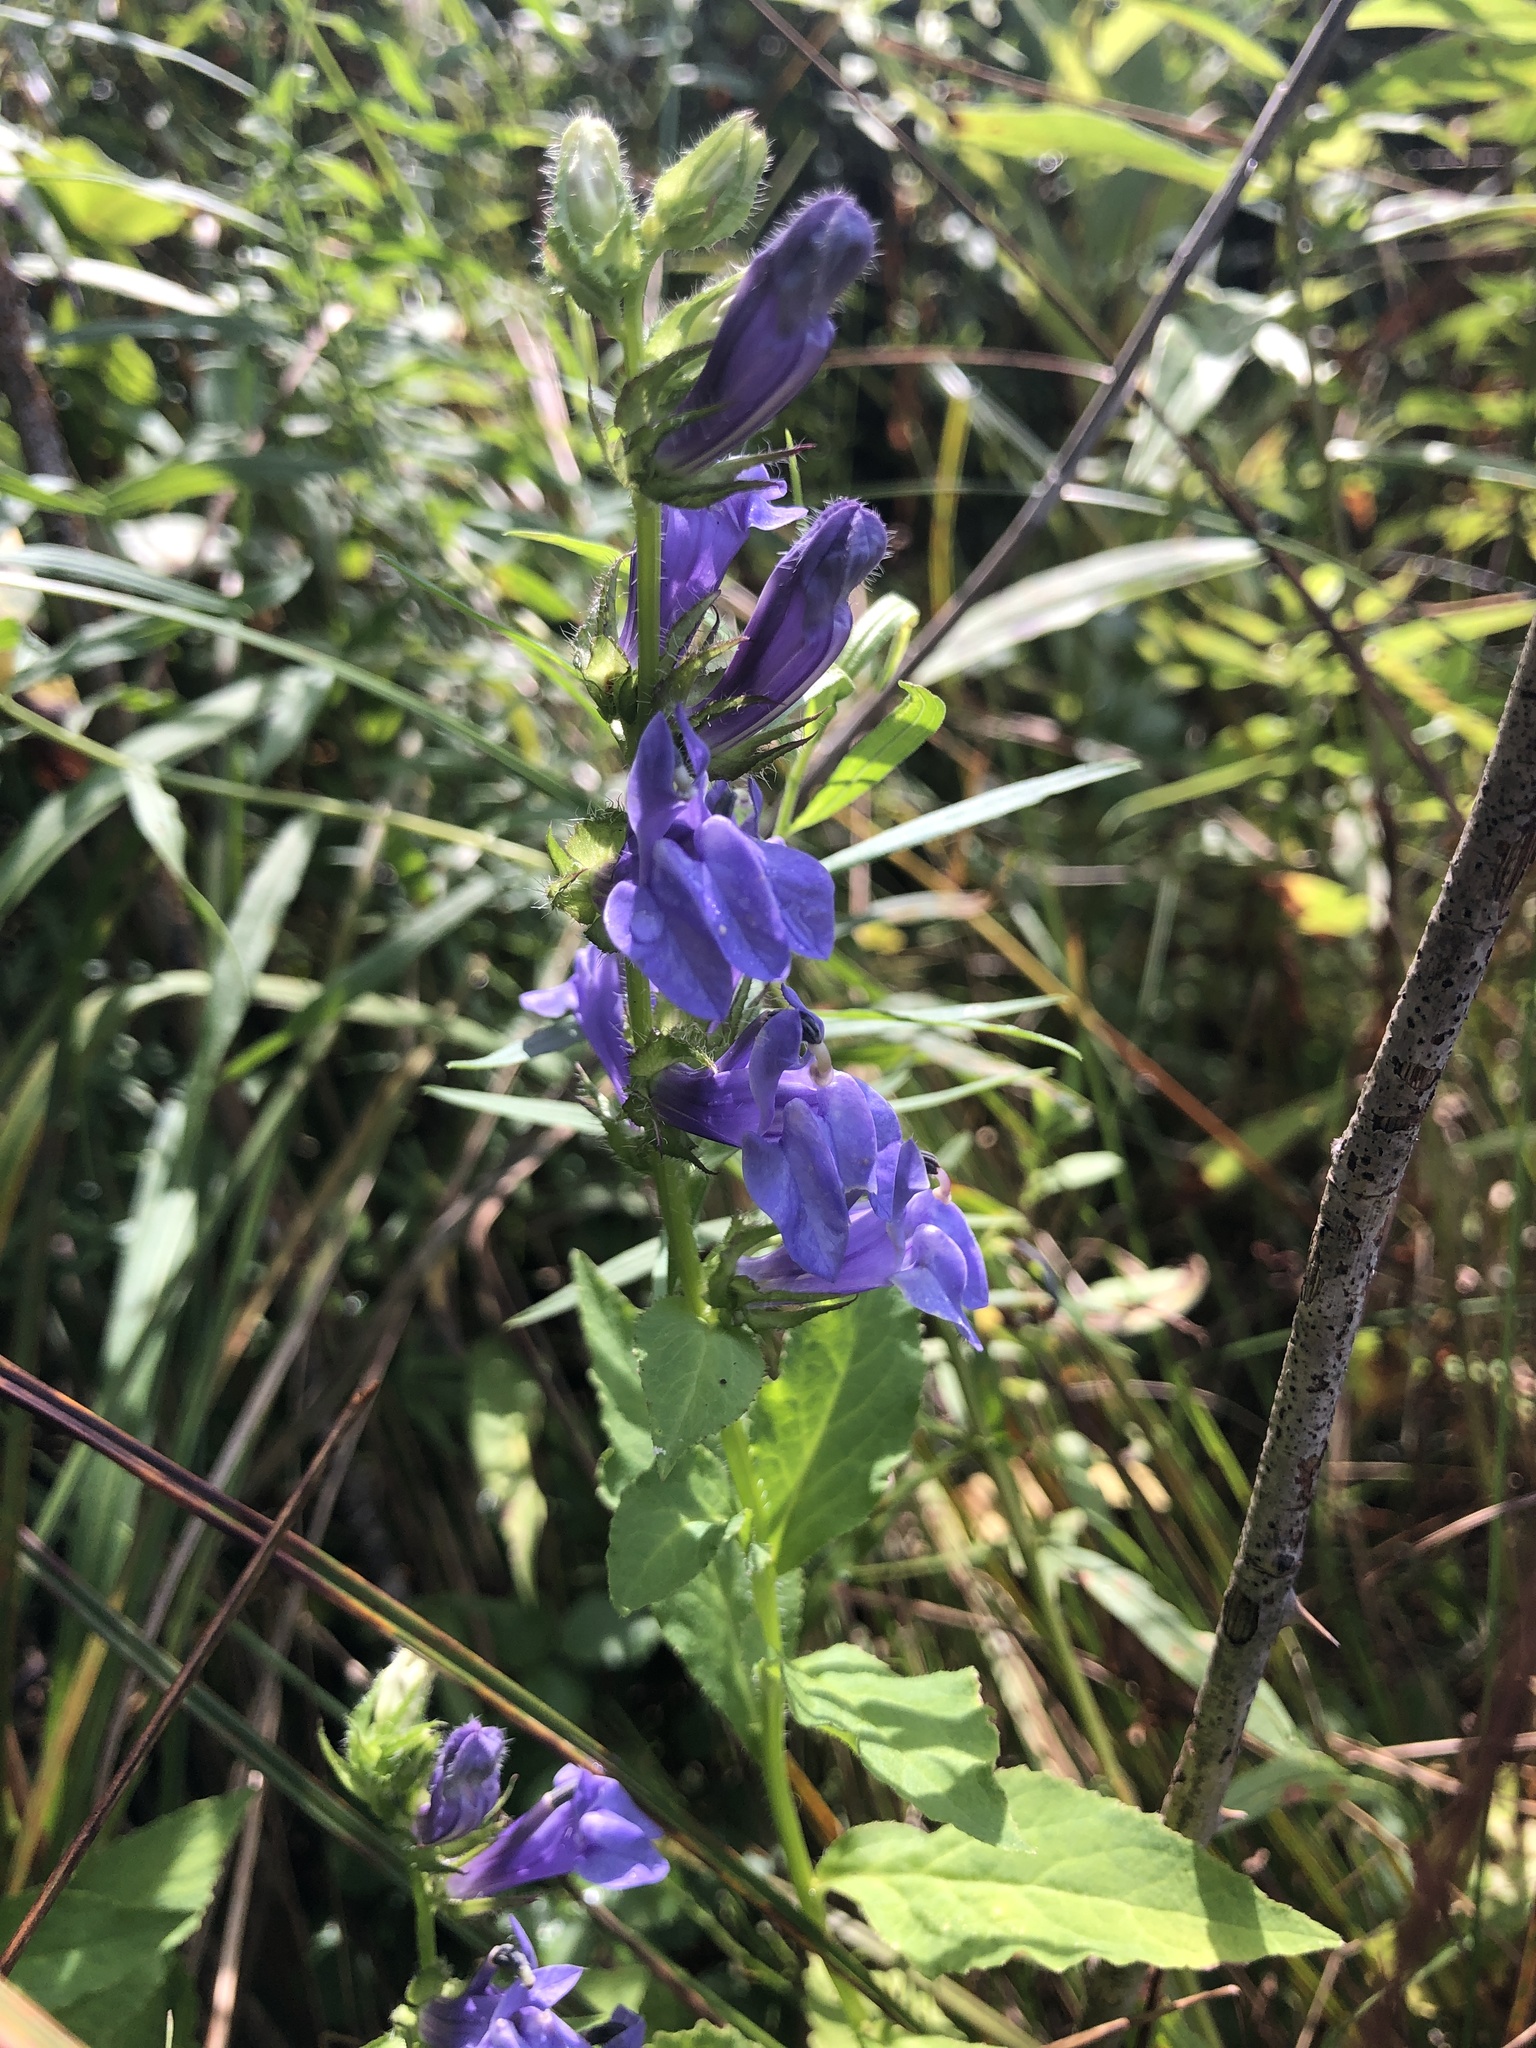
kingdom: Plantae
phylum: Tracheophyta
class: Magnoliopsida
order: Asterales
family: Campanulaceae
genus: Lobelia
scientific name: Lobelia siphilitica
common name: Great lobelia
